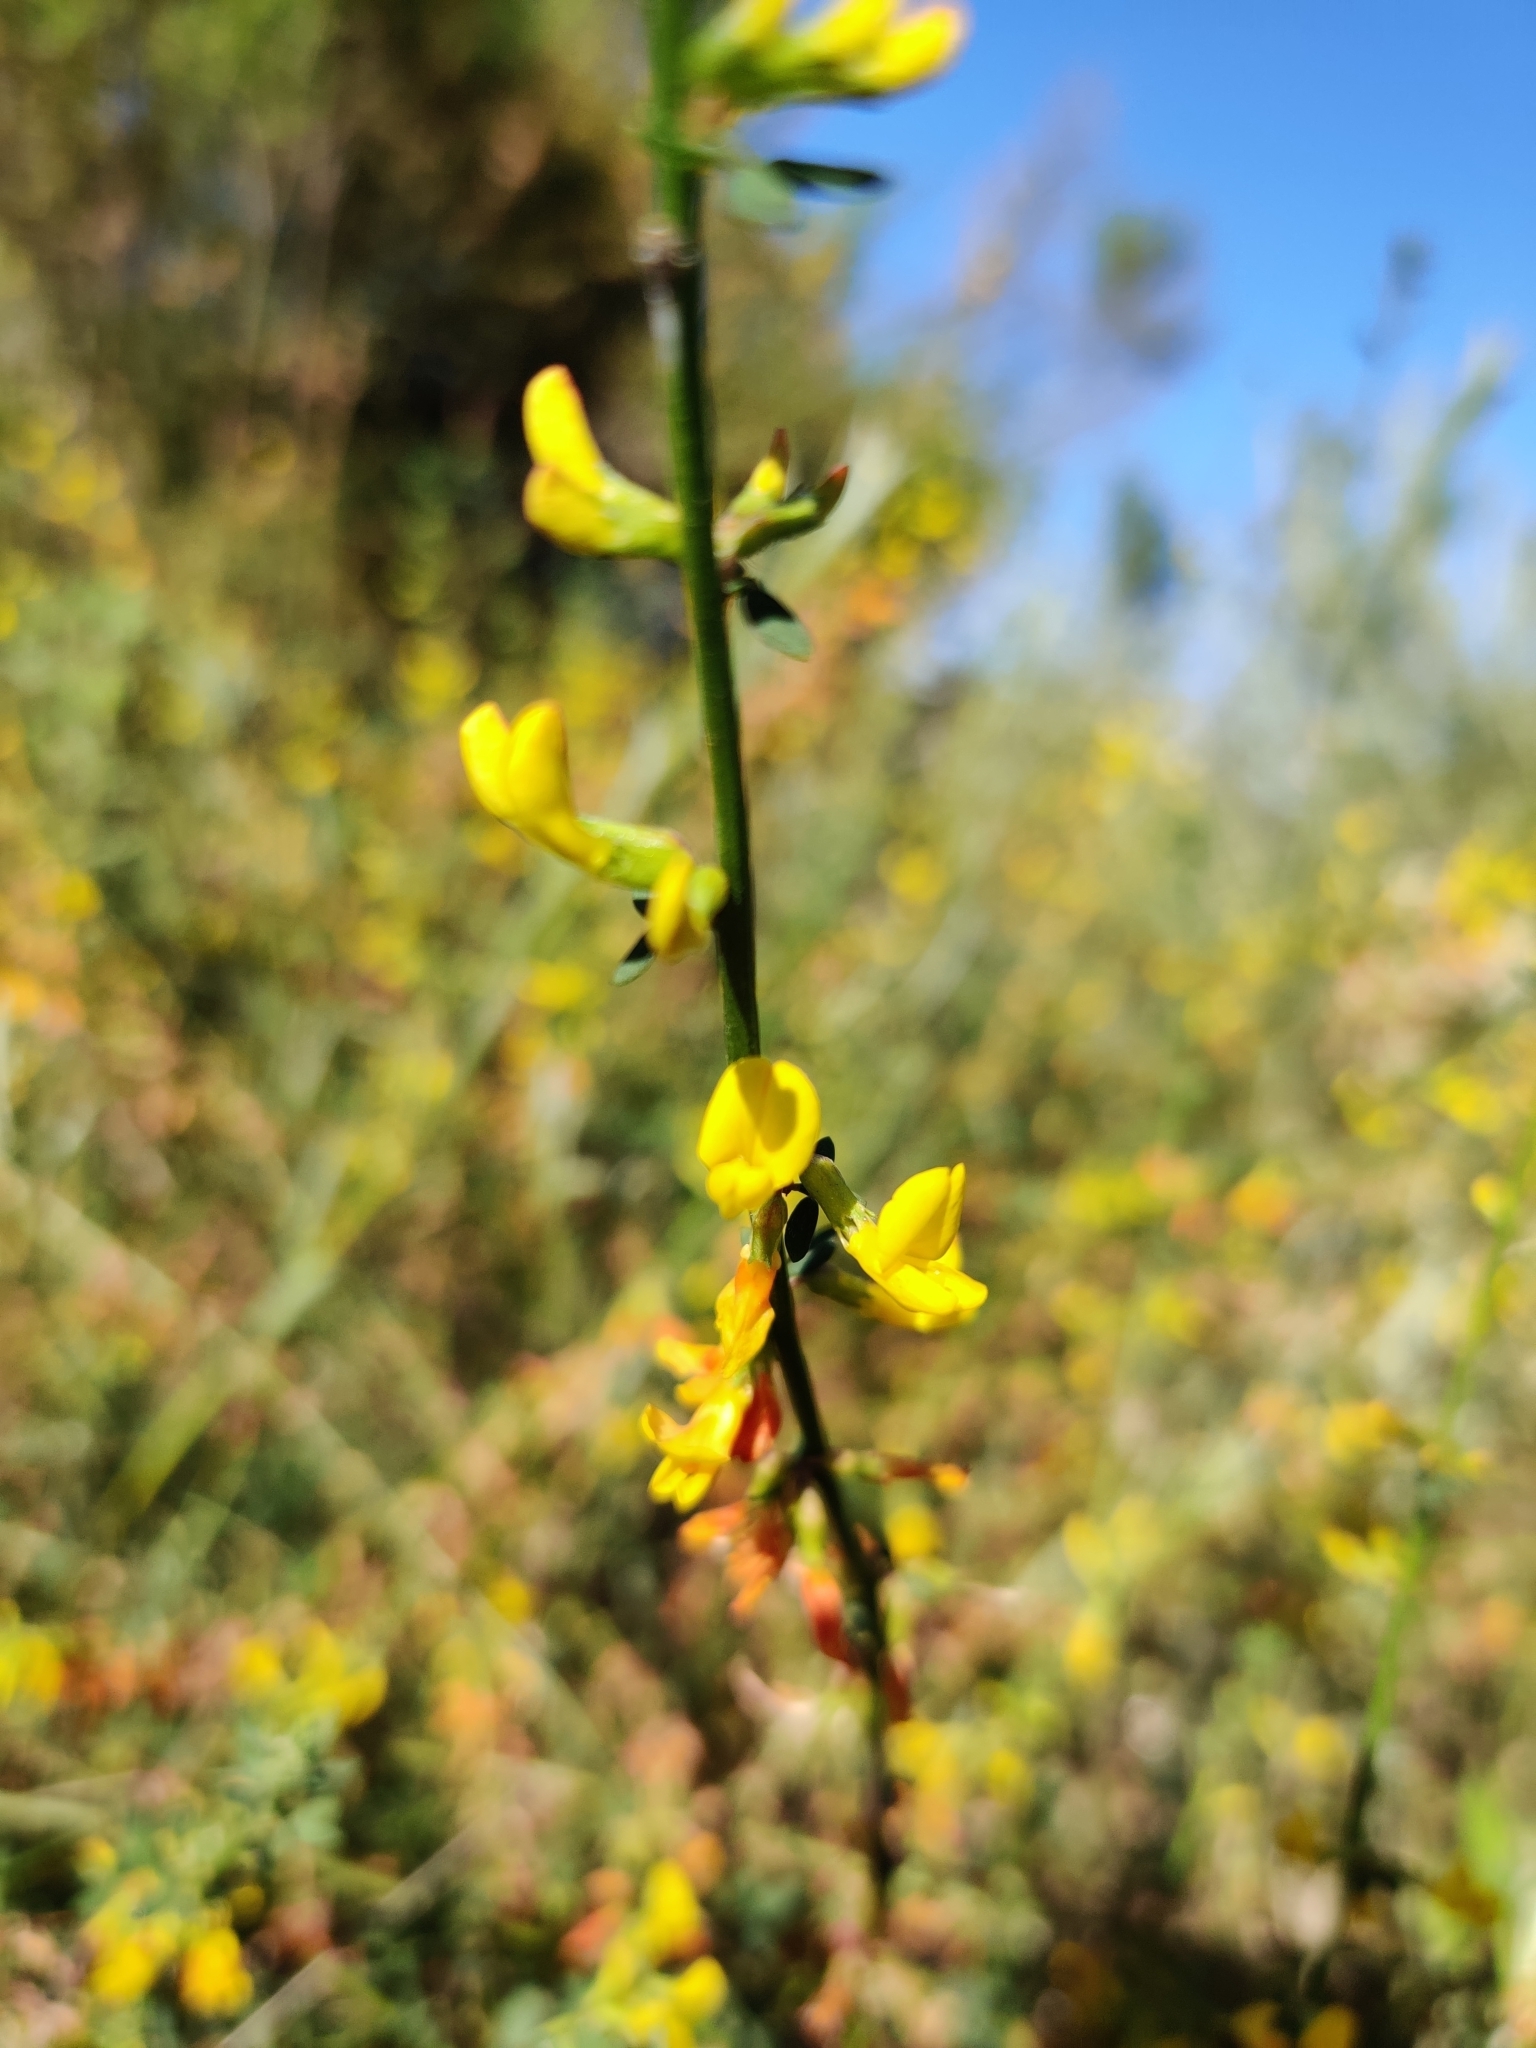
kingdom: Plantae
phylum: Tracheophyta
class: Magnoliopsida
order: Fabales
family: Fabaceae
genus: Acmispon
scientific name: Acmispon glaber
